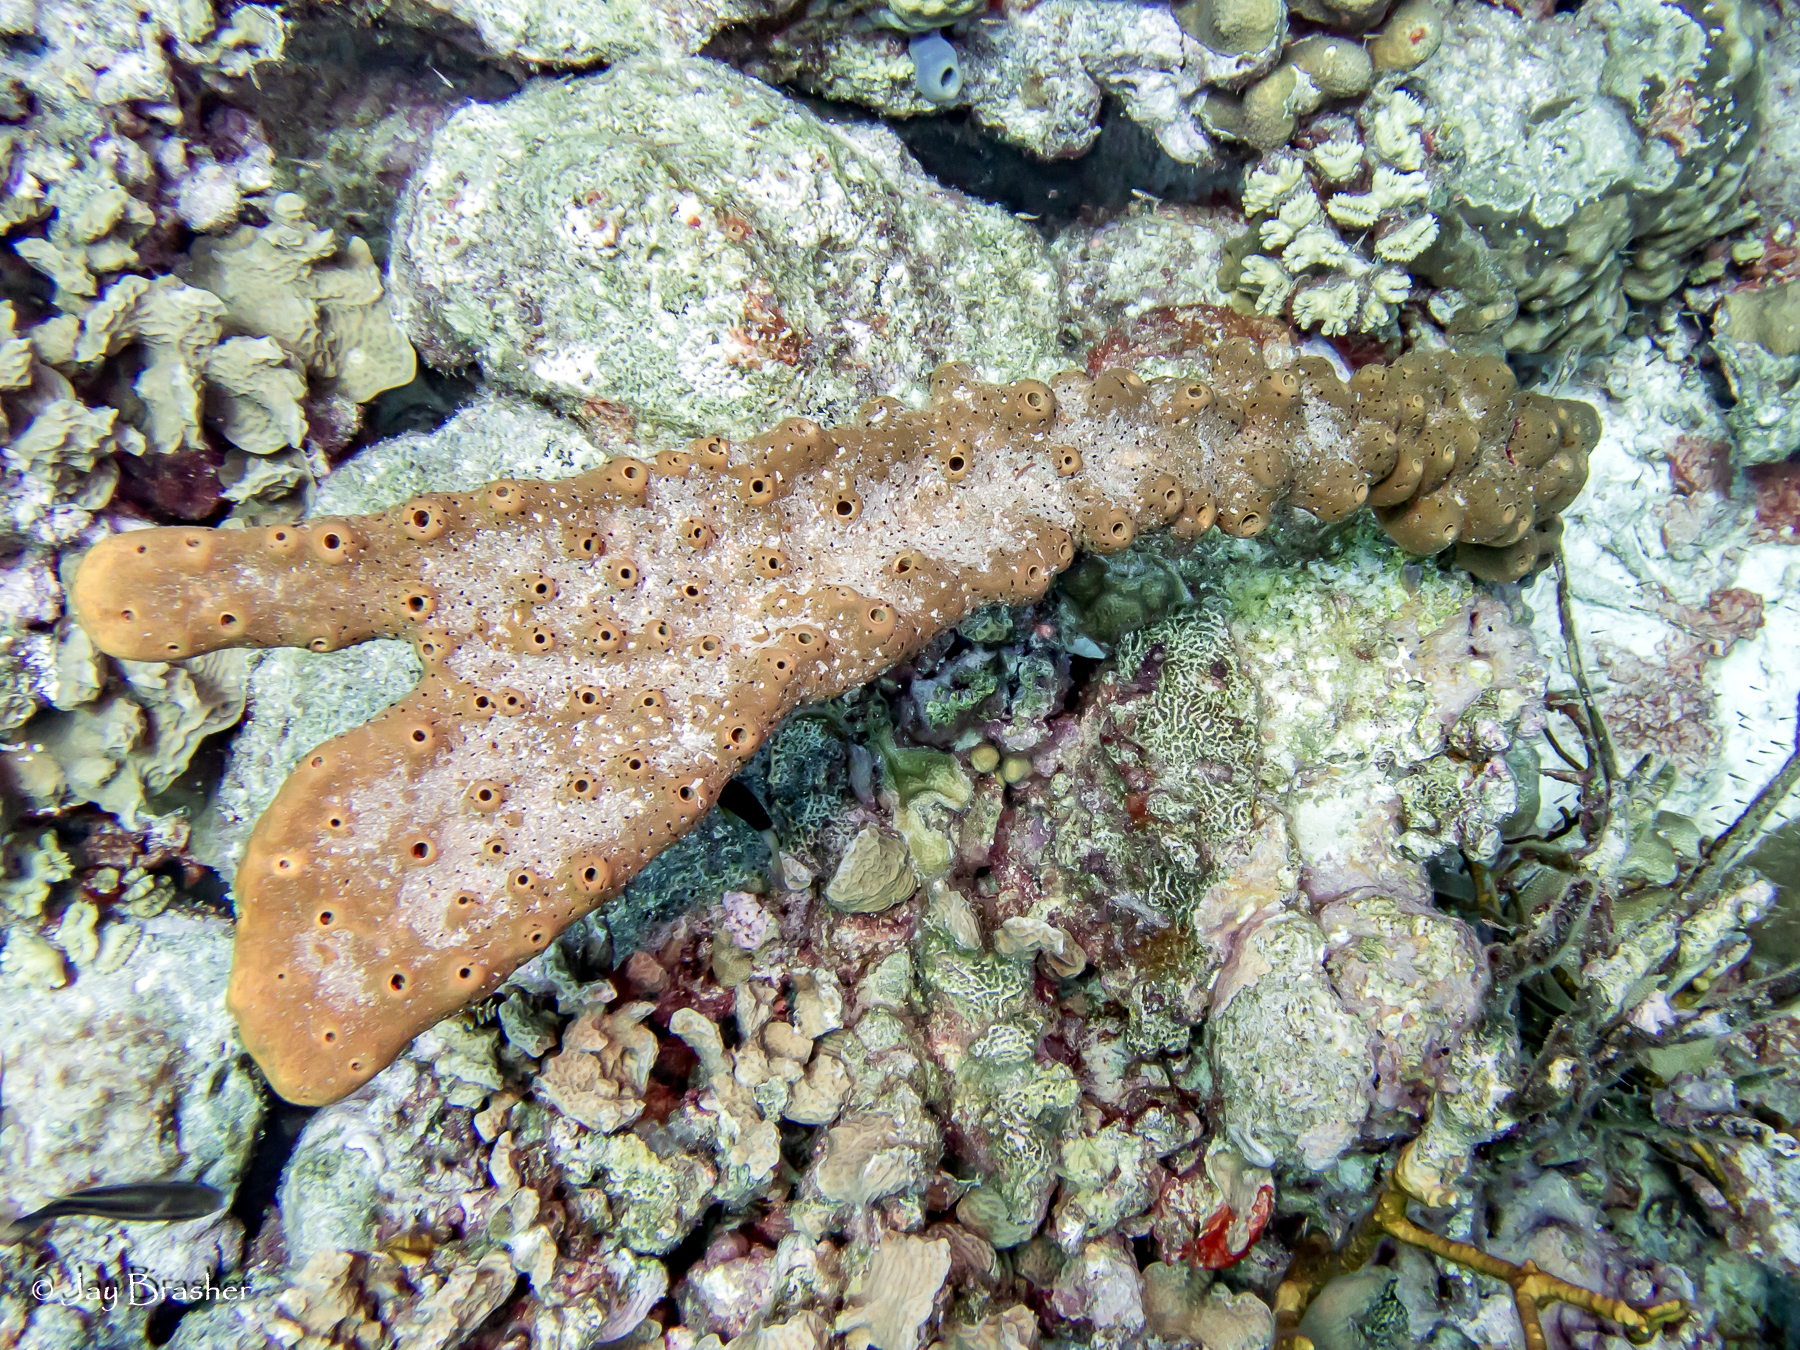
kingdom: Animalia
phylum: Porifera
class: Demospongiae
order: Agelasida
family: Agelasidae
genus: Agelas
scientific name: Agelas sceptrum
